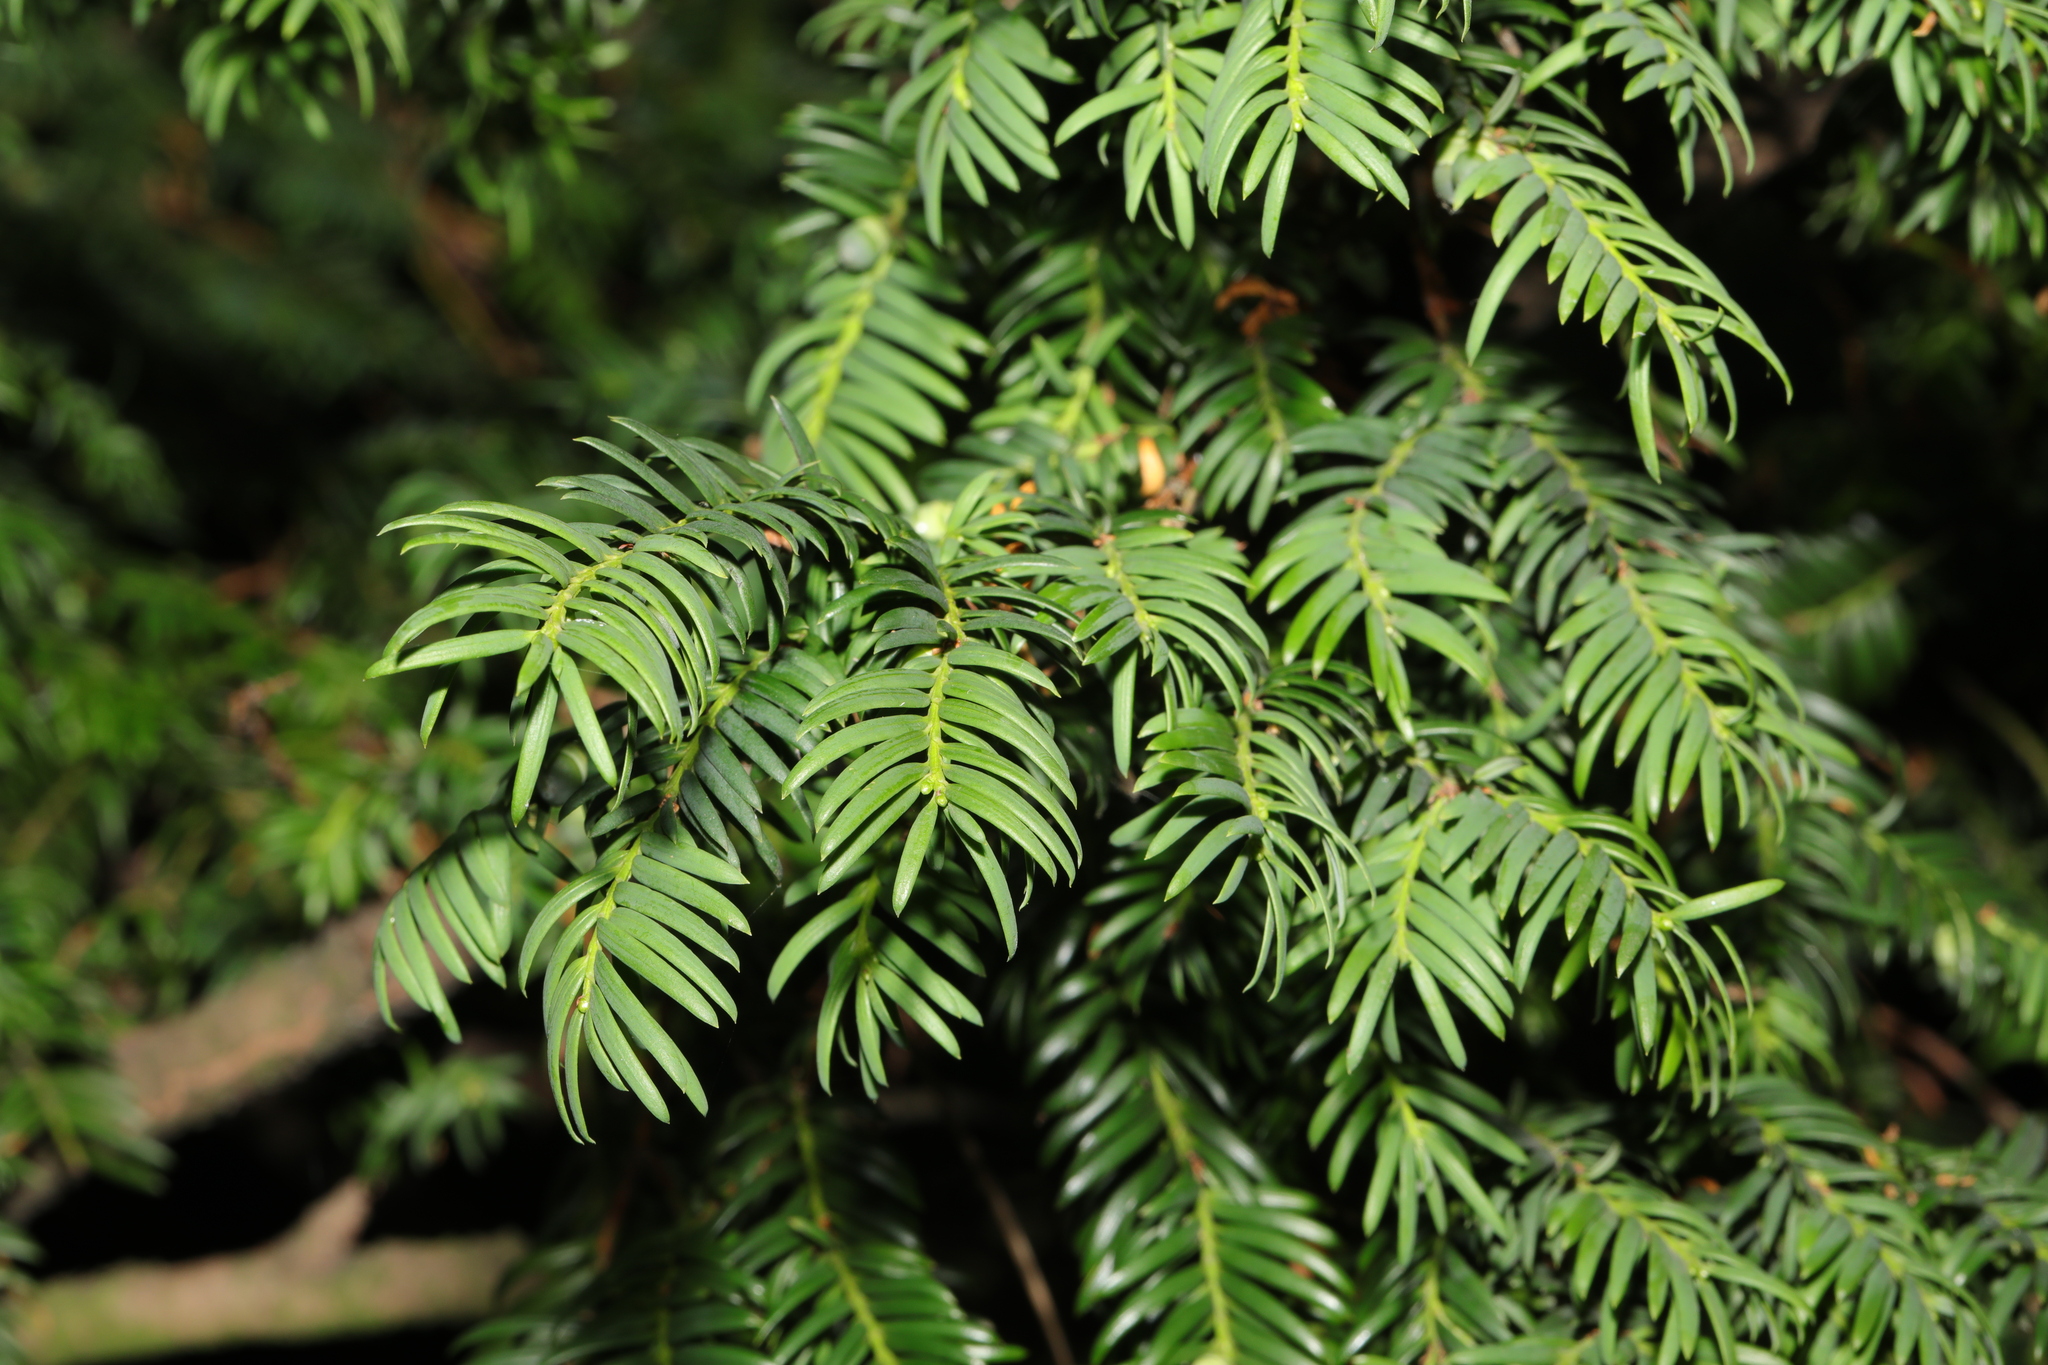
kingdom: Plantae
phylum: Tracheophyta
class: Pinopsida
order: Pinales
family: Taxaceae
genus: Taxus
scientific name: Taxus baccata
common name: Yew
